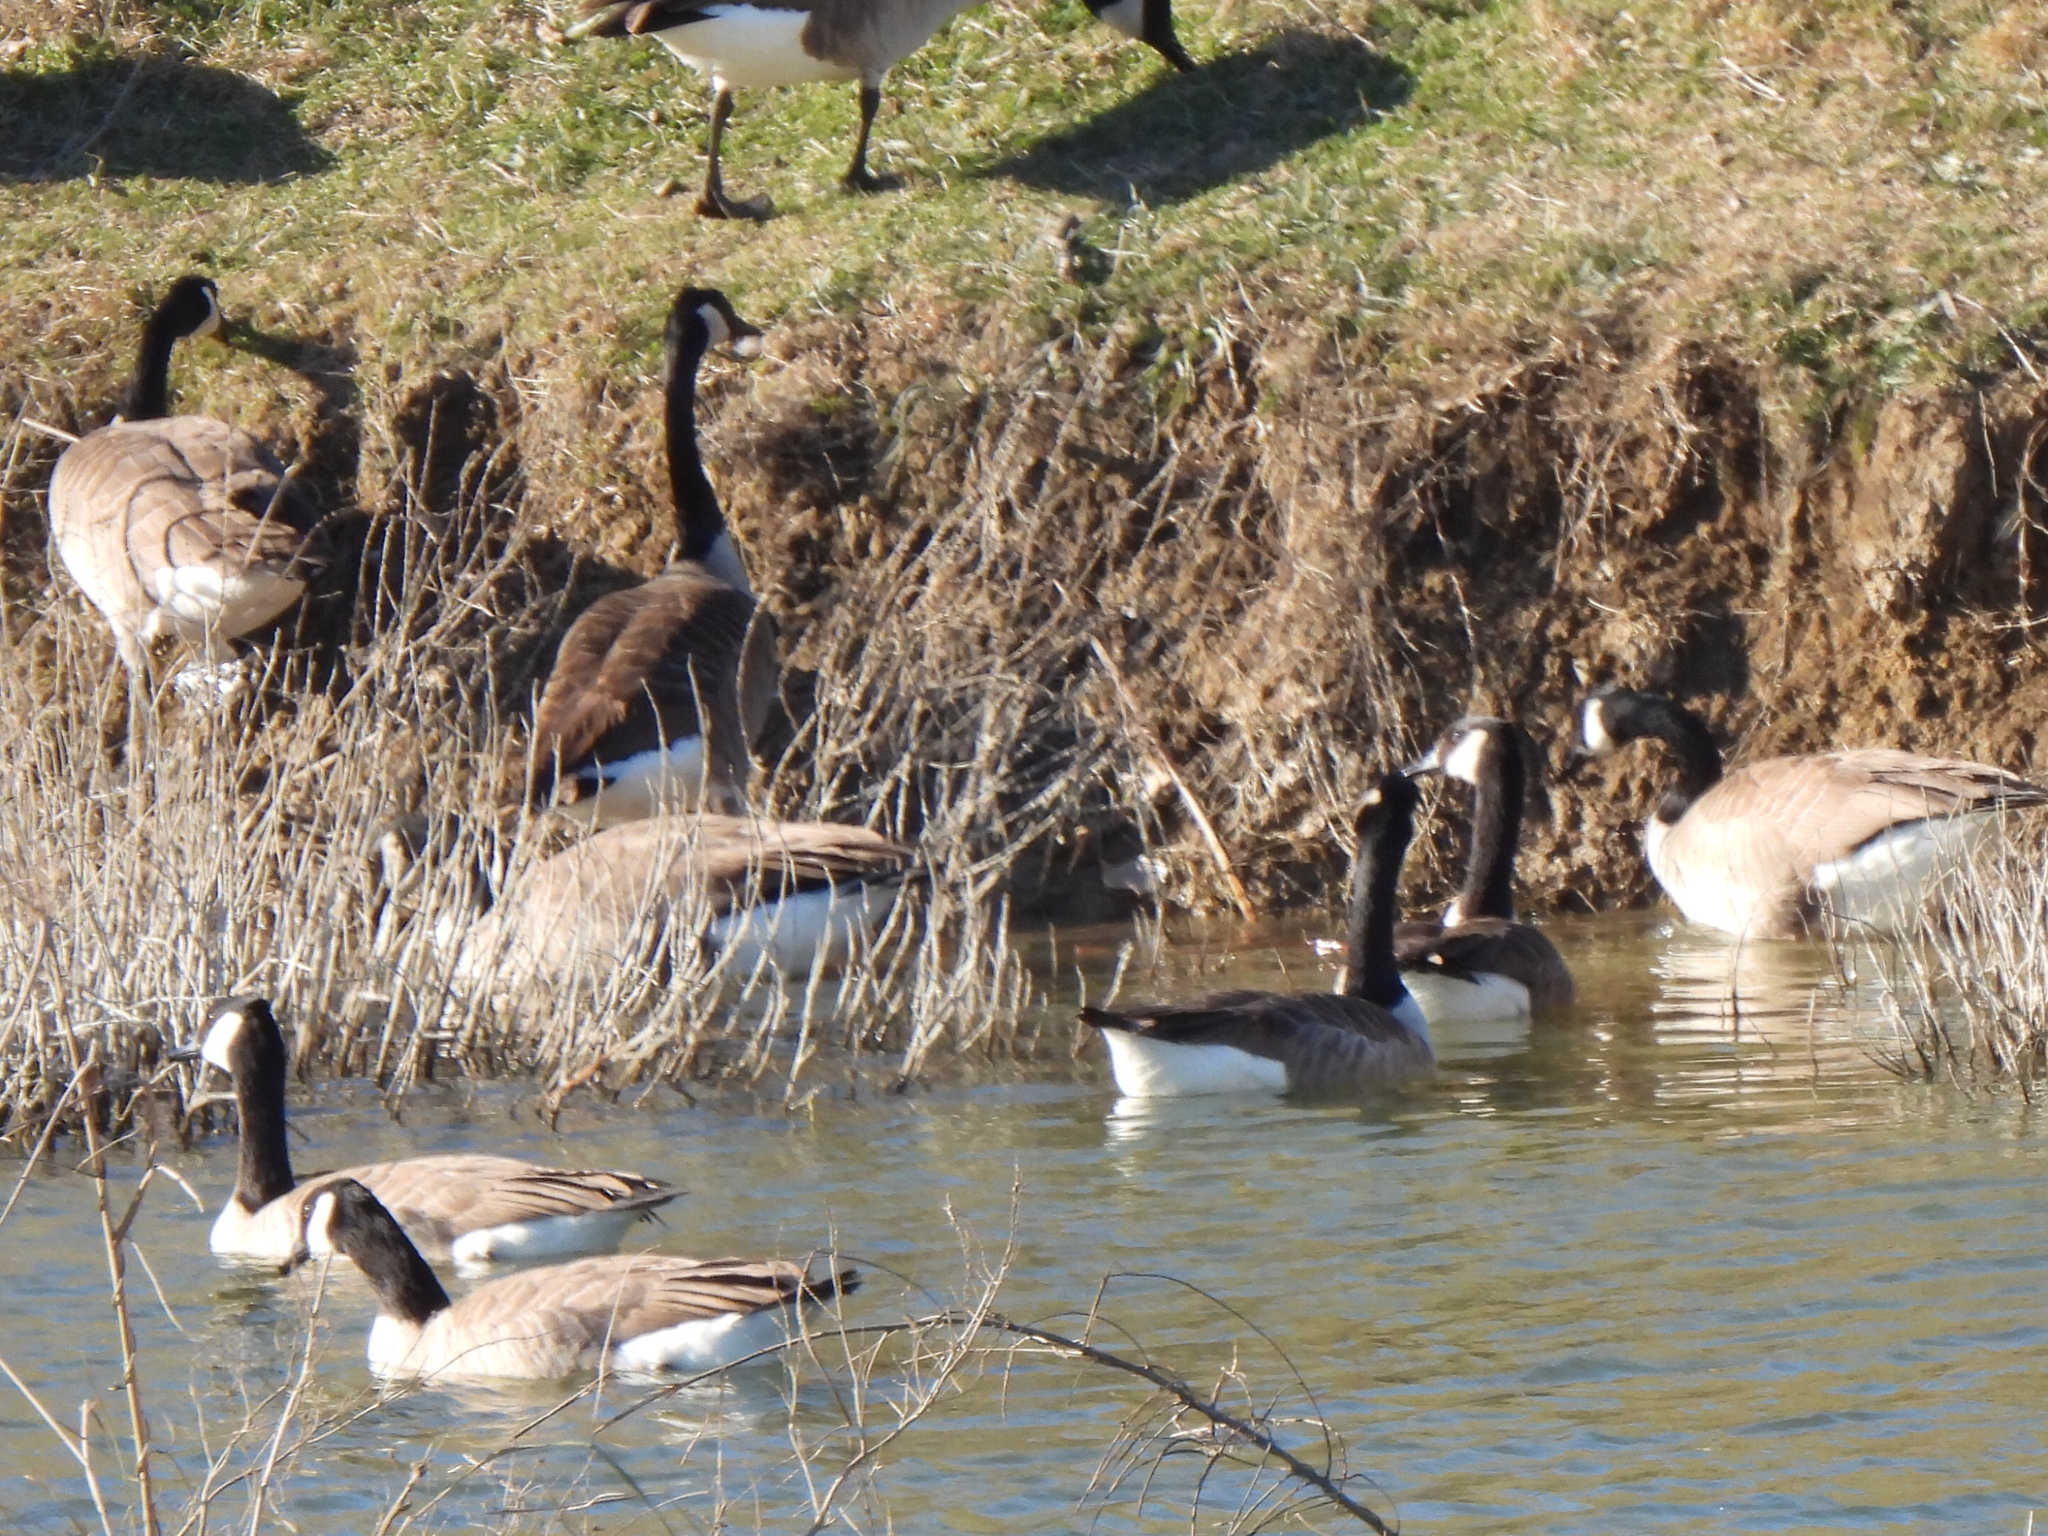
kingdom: Animalia
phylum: Chordata
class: Aves
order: Anseriformes
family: Anatidae
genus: Branta
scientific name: Branta canadensis
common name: Canada goose
